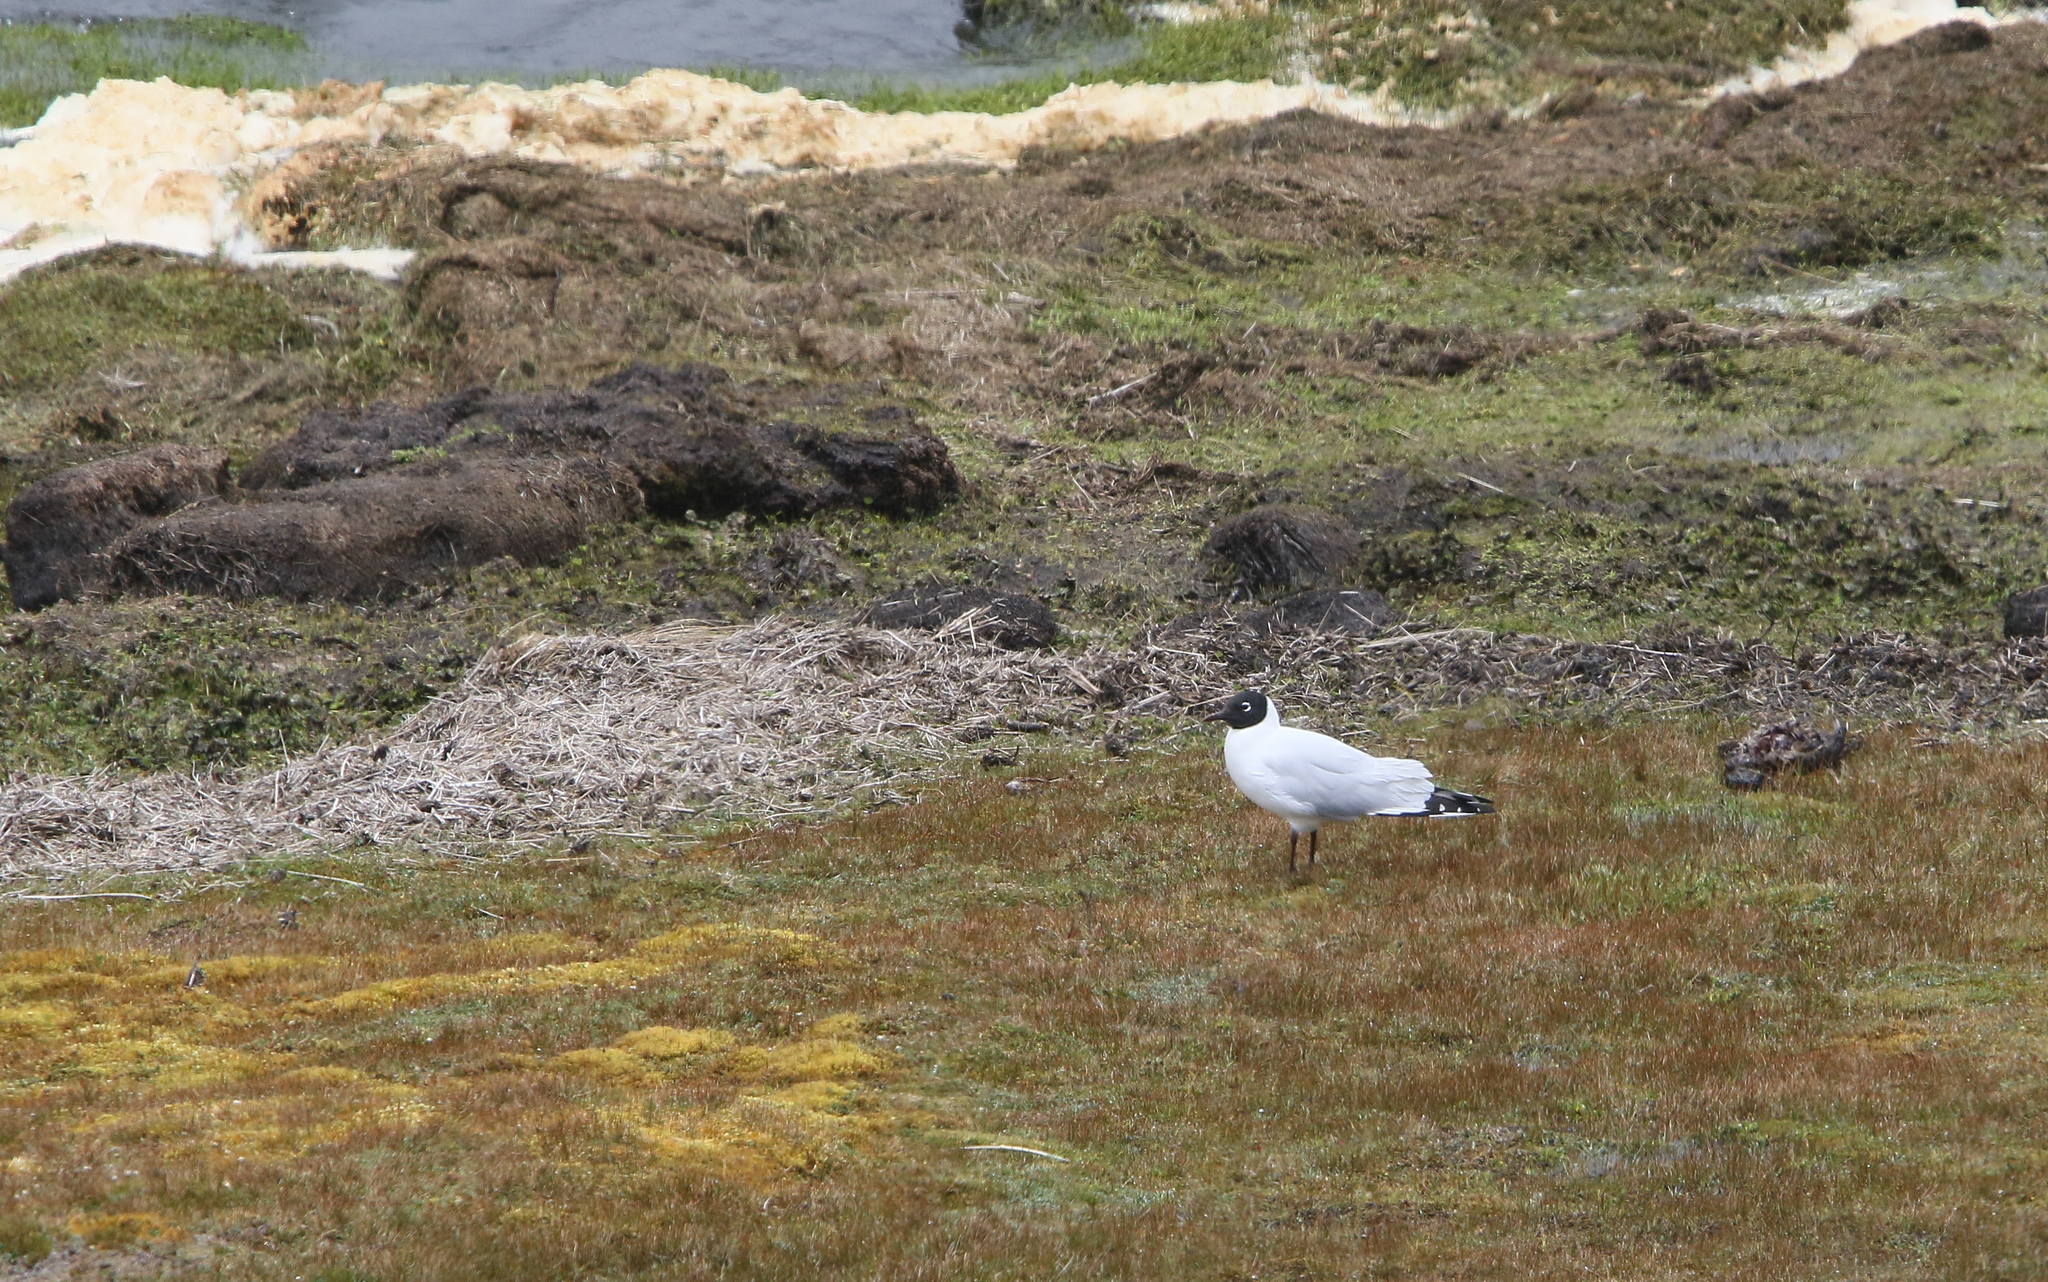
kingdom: Animalia
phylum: Chordata
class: Aves
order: Charadriiformes
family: Laridae
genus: Chroicocephalus
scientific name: Chroicocephalus serranus
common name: Andean gull
